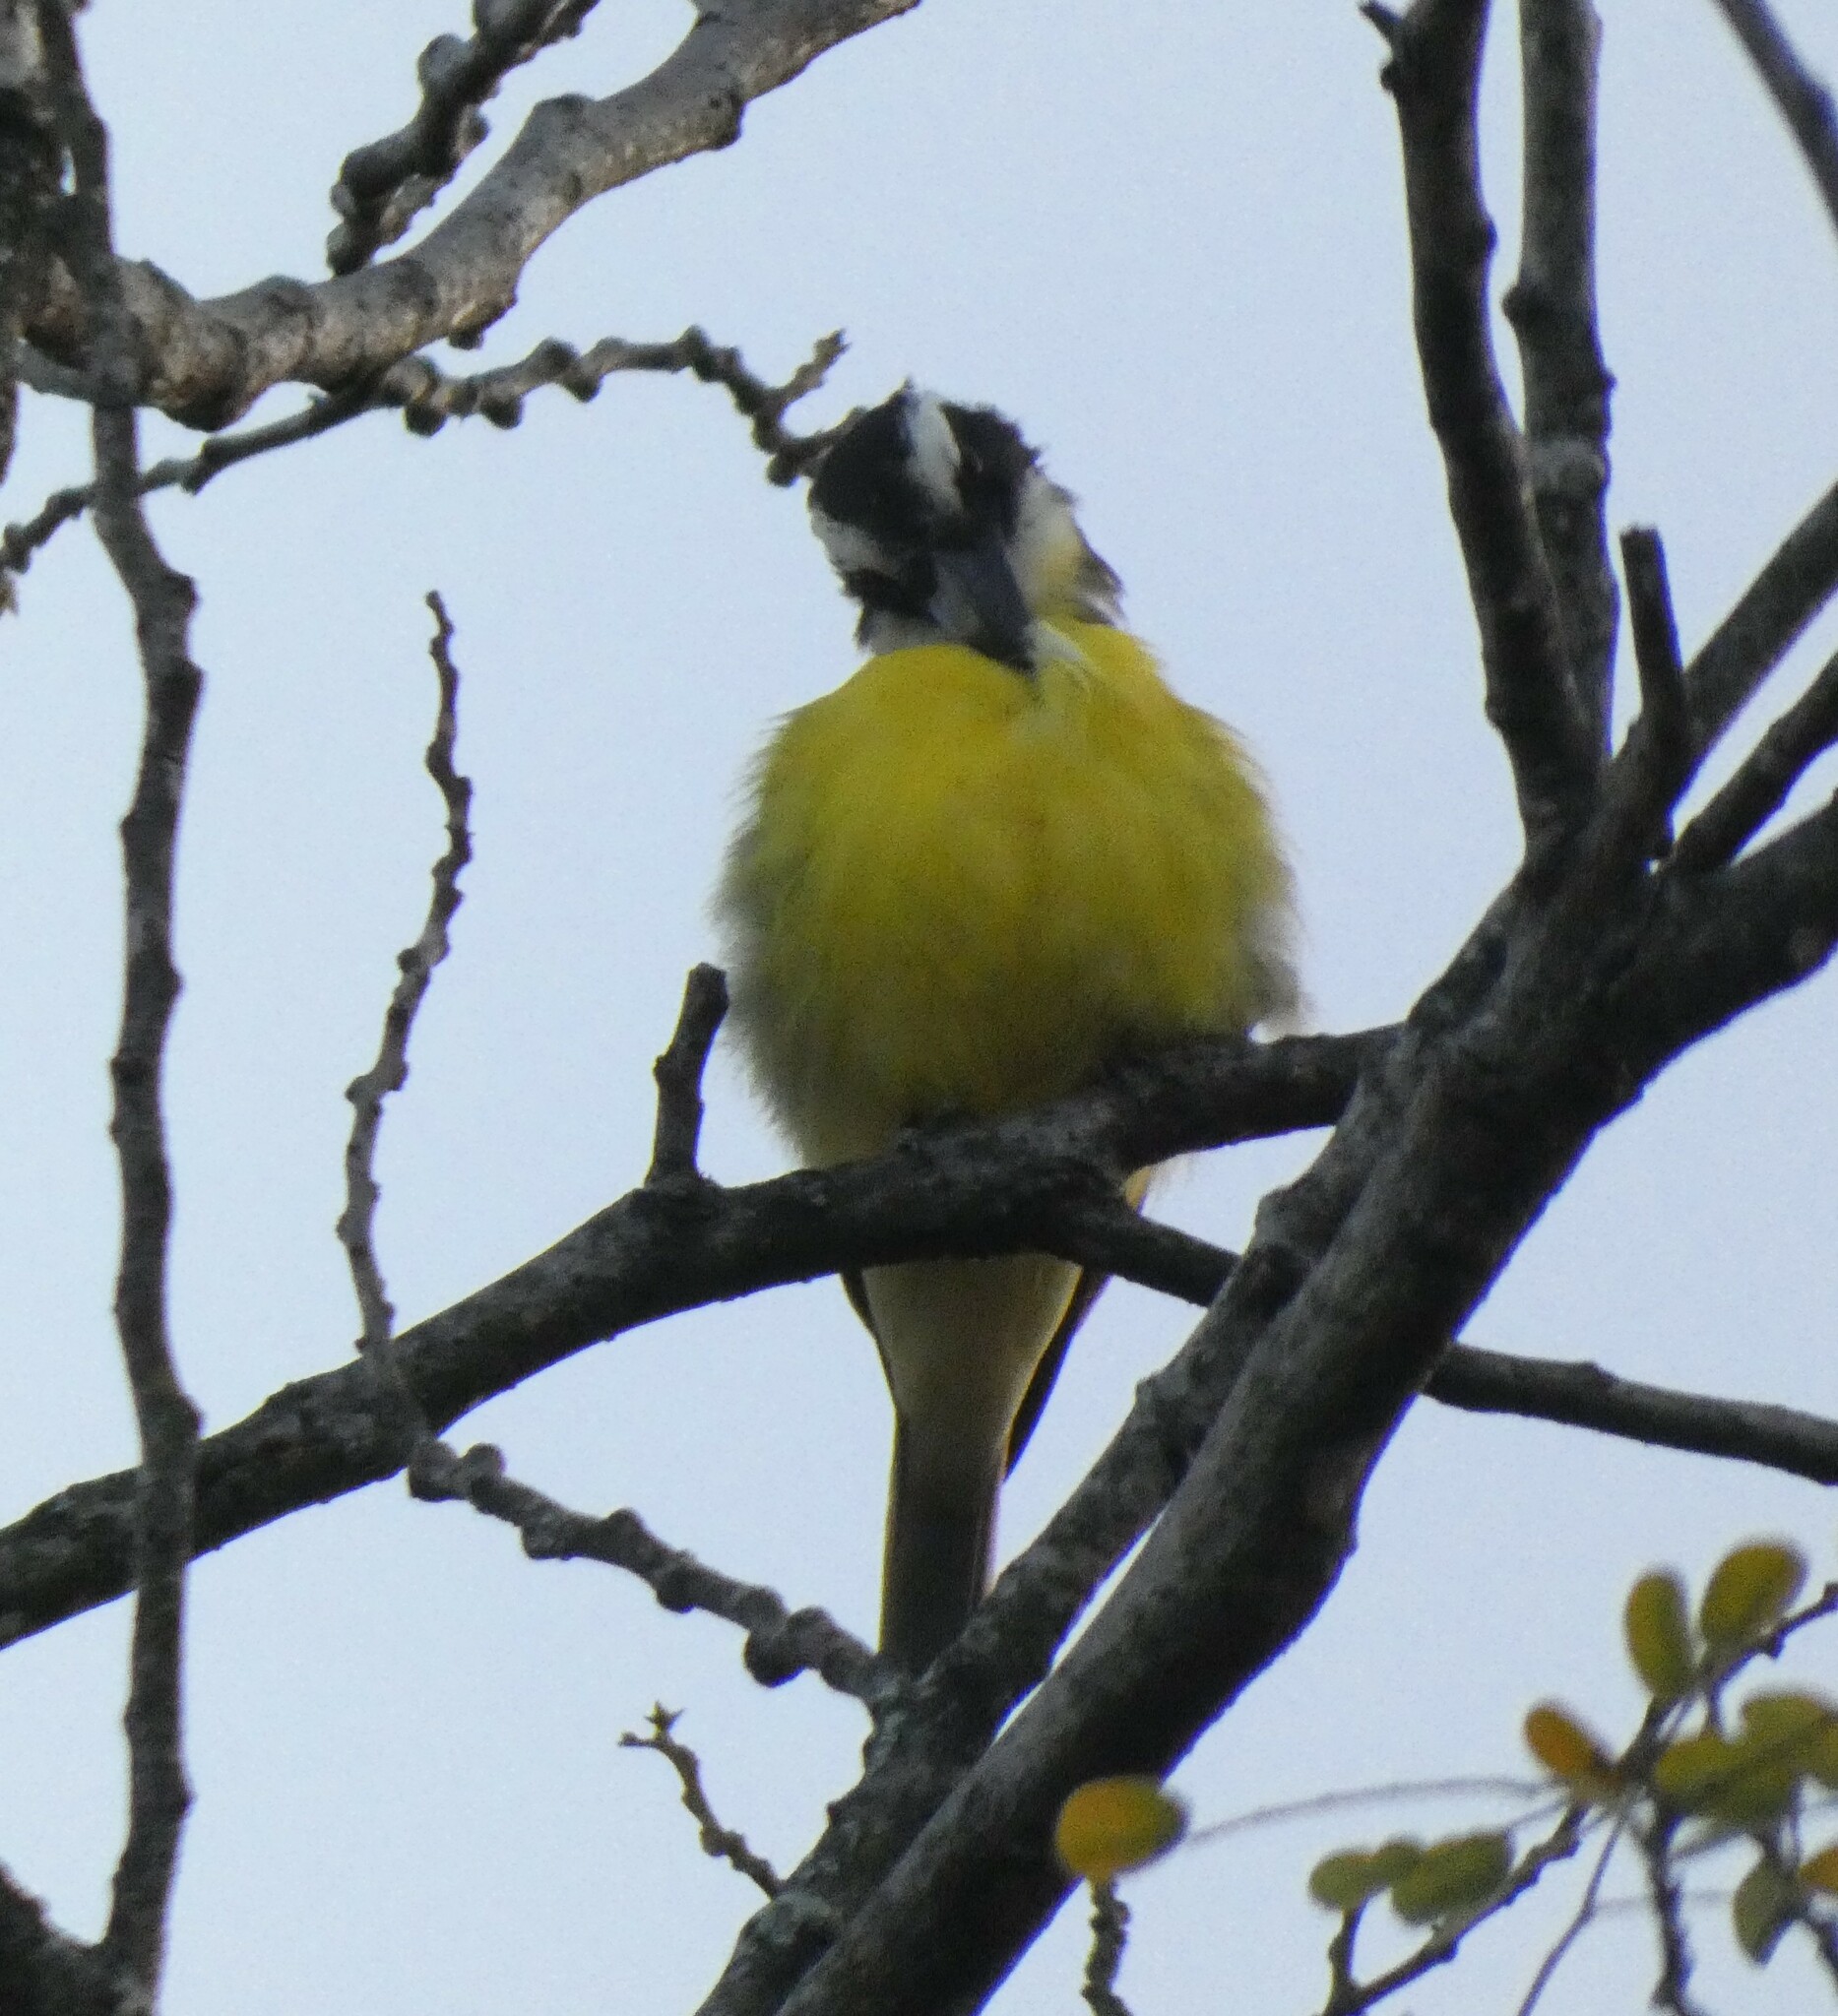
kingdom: Animalia
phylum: Chordata
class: Aves
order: Passeriformes
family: Tyrannidae
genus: Megarynchus
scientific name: Megarynchus pitangua
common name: Boat-billed flycatcher
